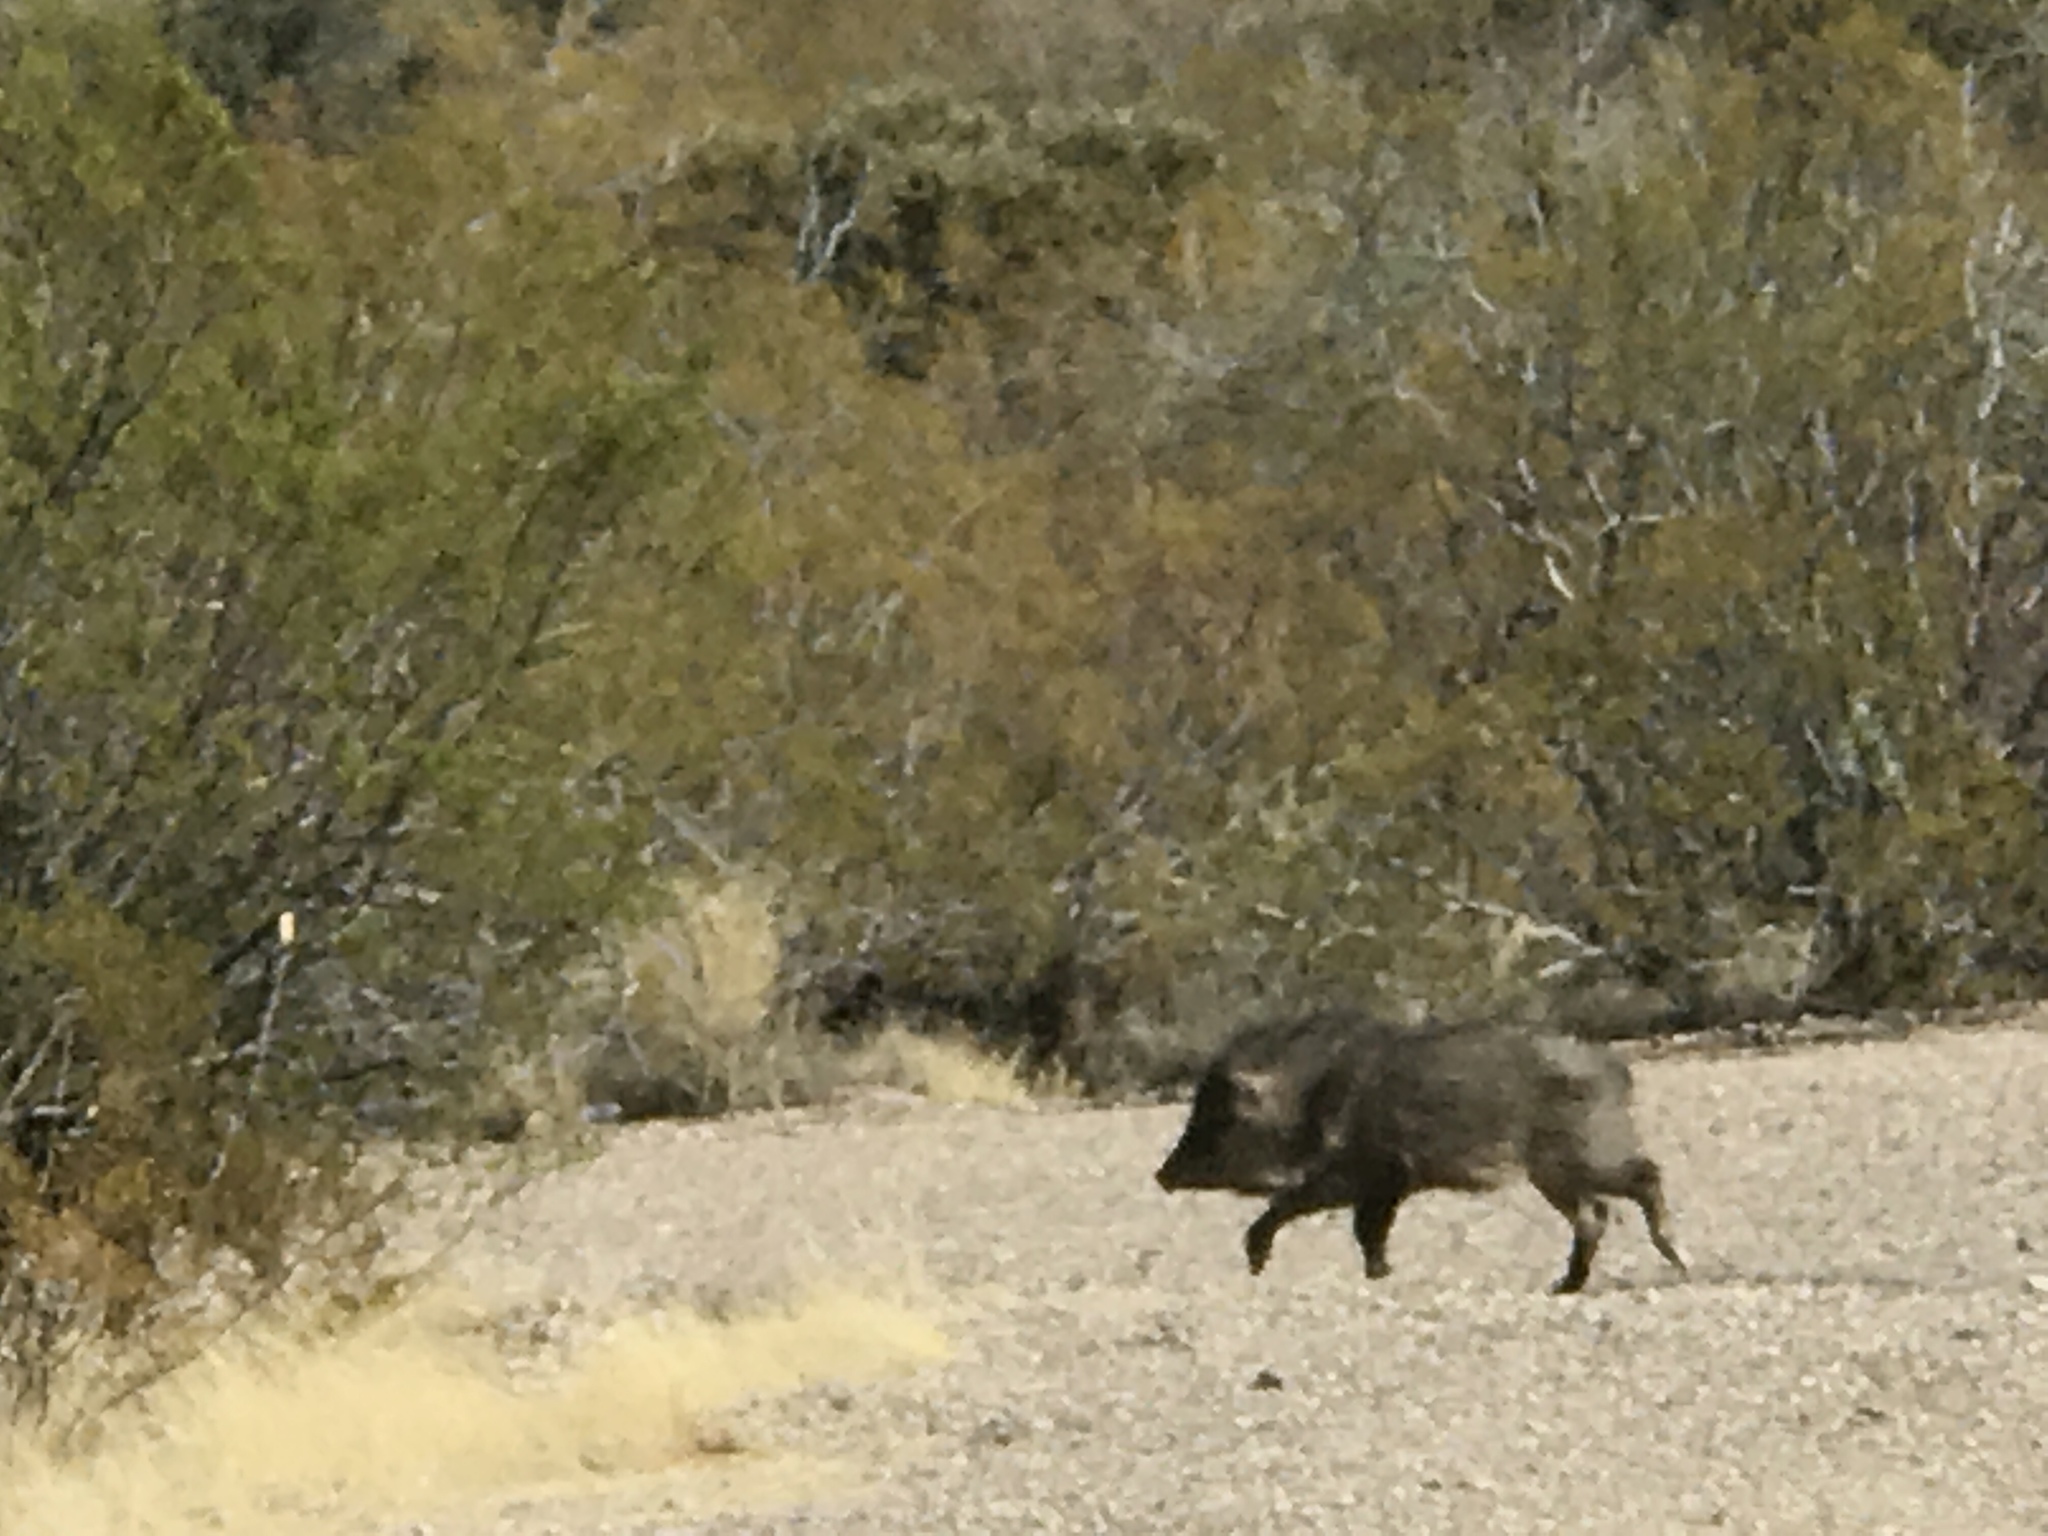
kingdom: Animalia
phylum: Chordata
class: Mammalia
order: Artiodactyla
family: Tayassuidae
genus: Pecari
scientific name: Pecari tajacu
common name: Collared peccary
